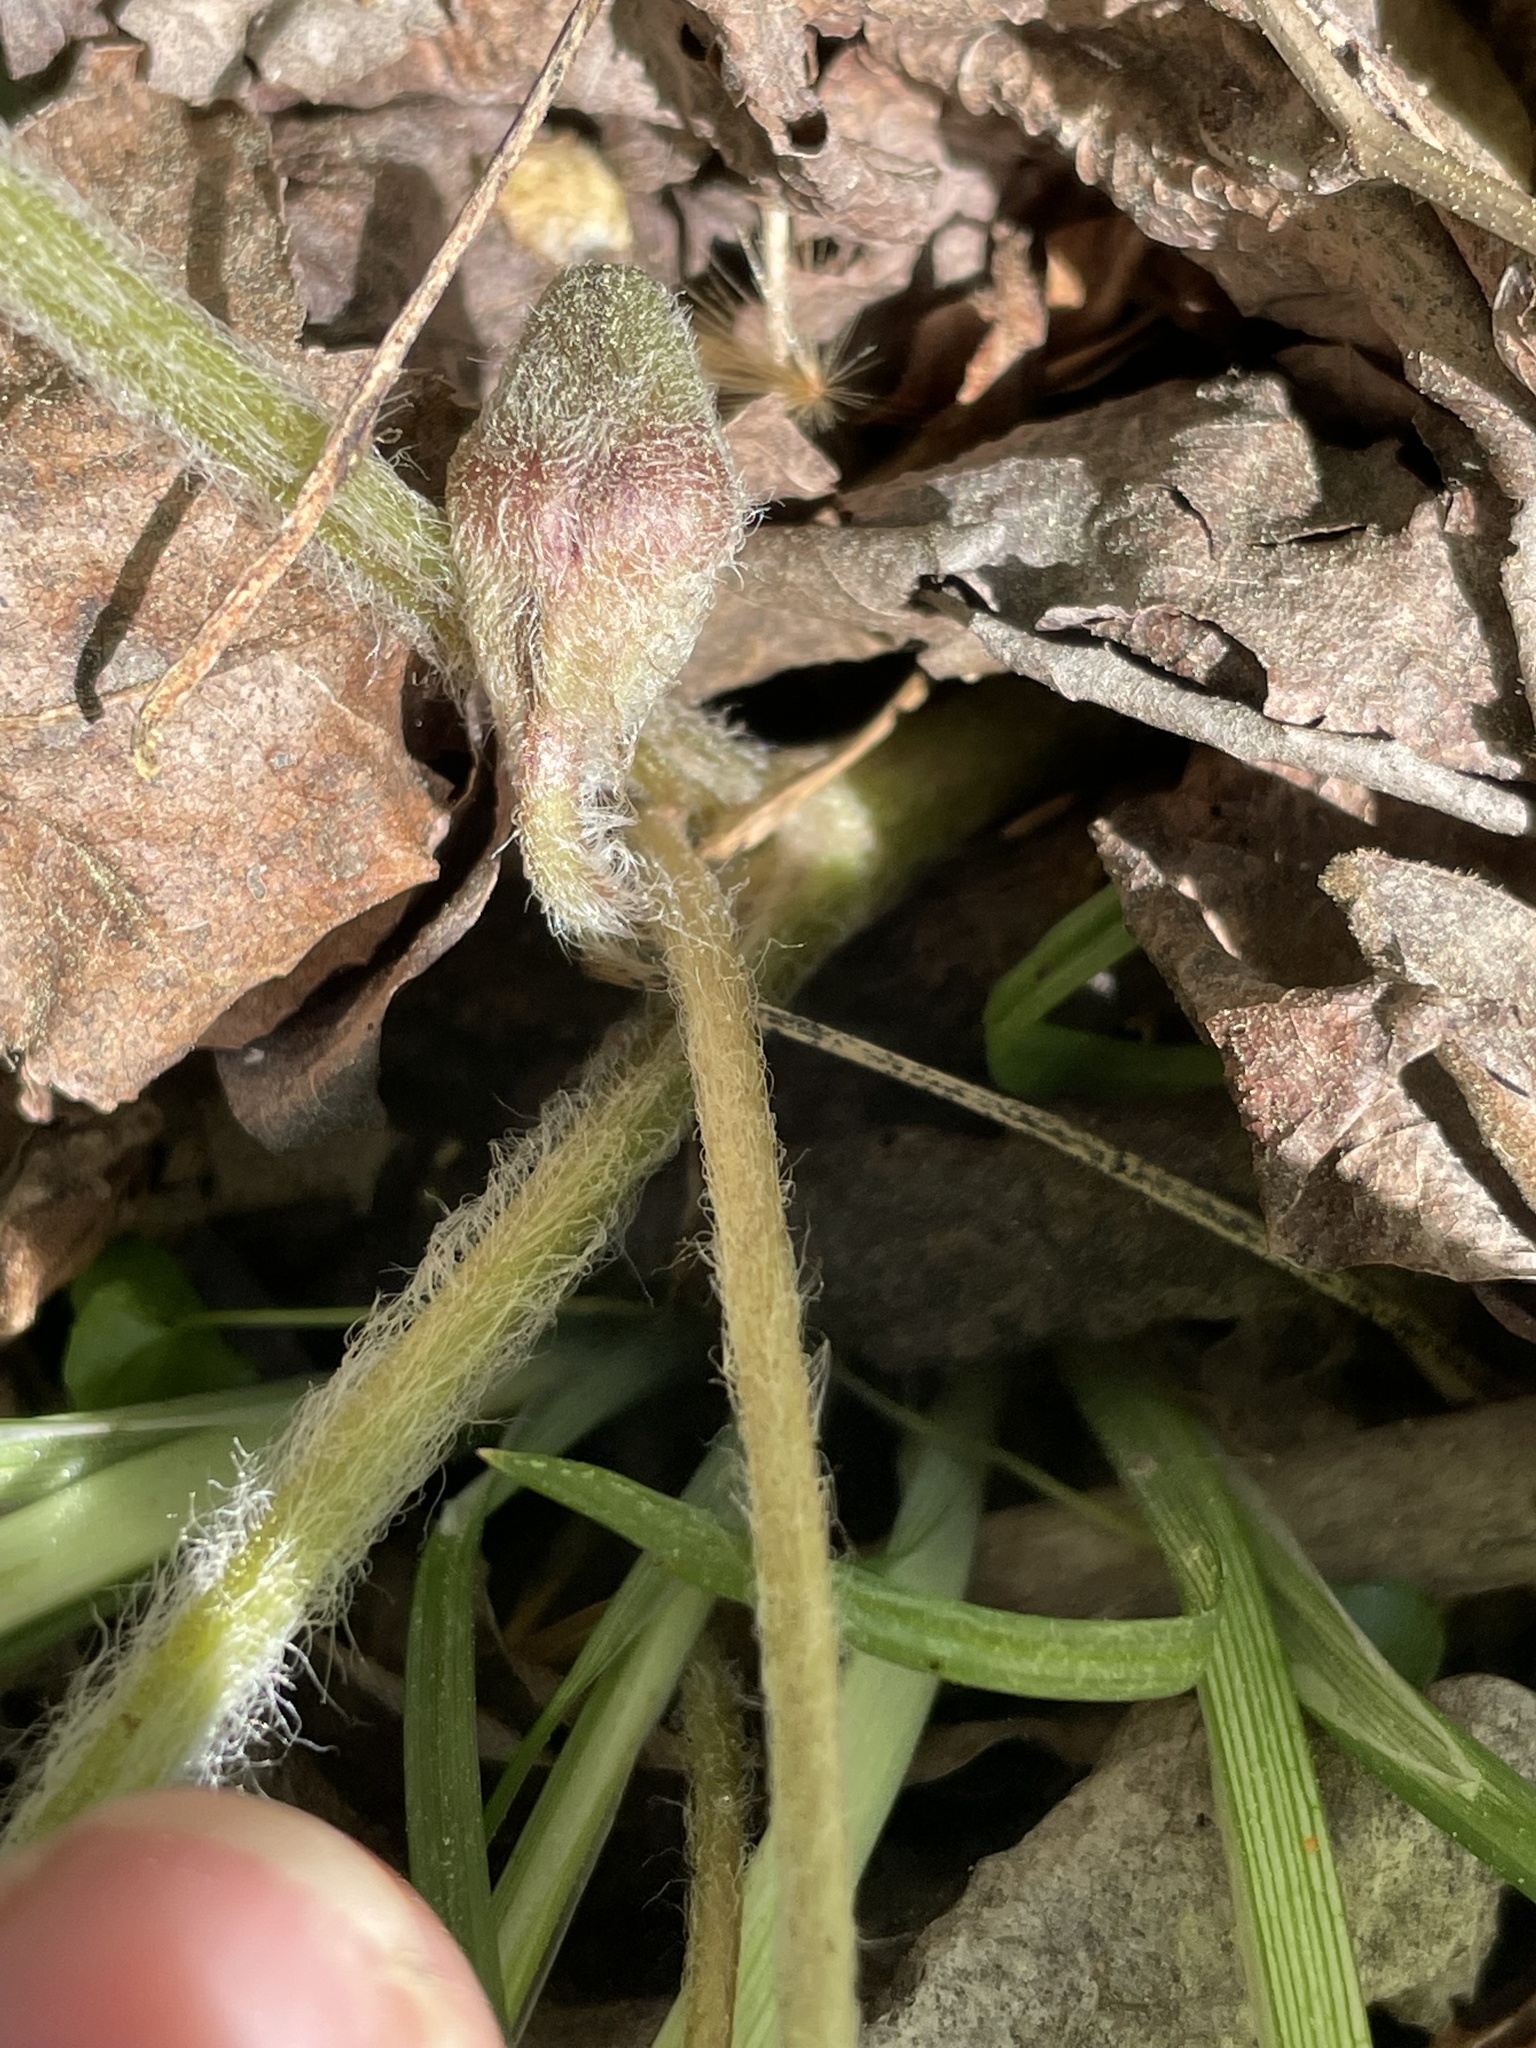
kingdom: Plantae
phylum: Tracheophyta
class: Magnoliopsida
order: Piperales
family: Aristolochiaceae
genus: Asarum
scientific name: Asarum canadense
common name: Wild ginger
